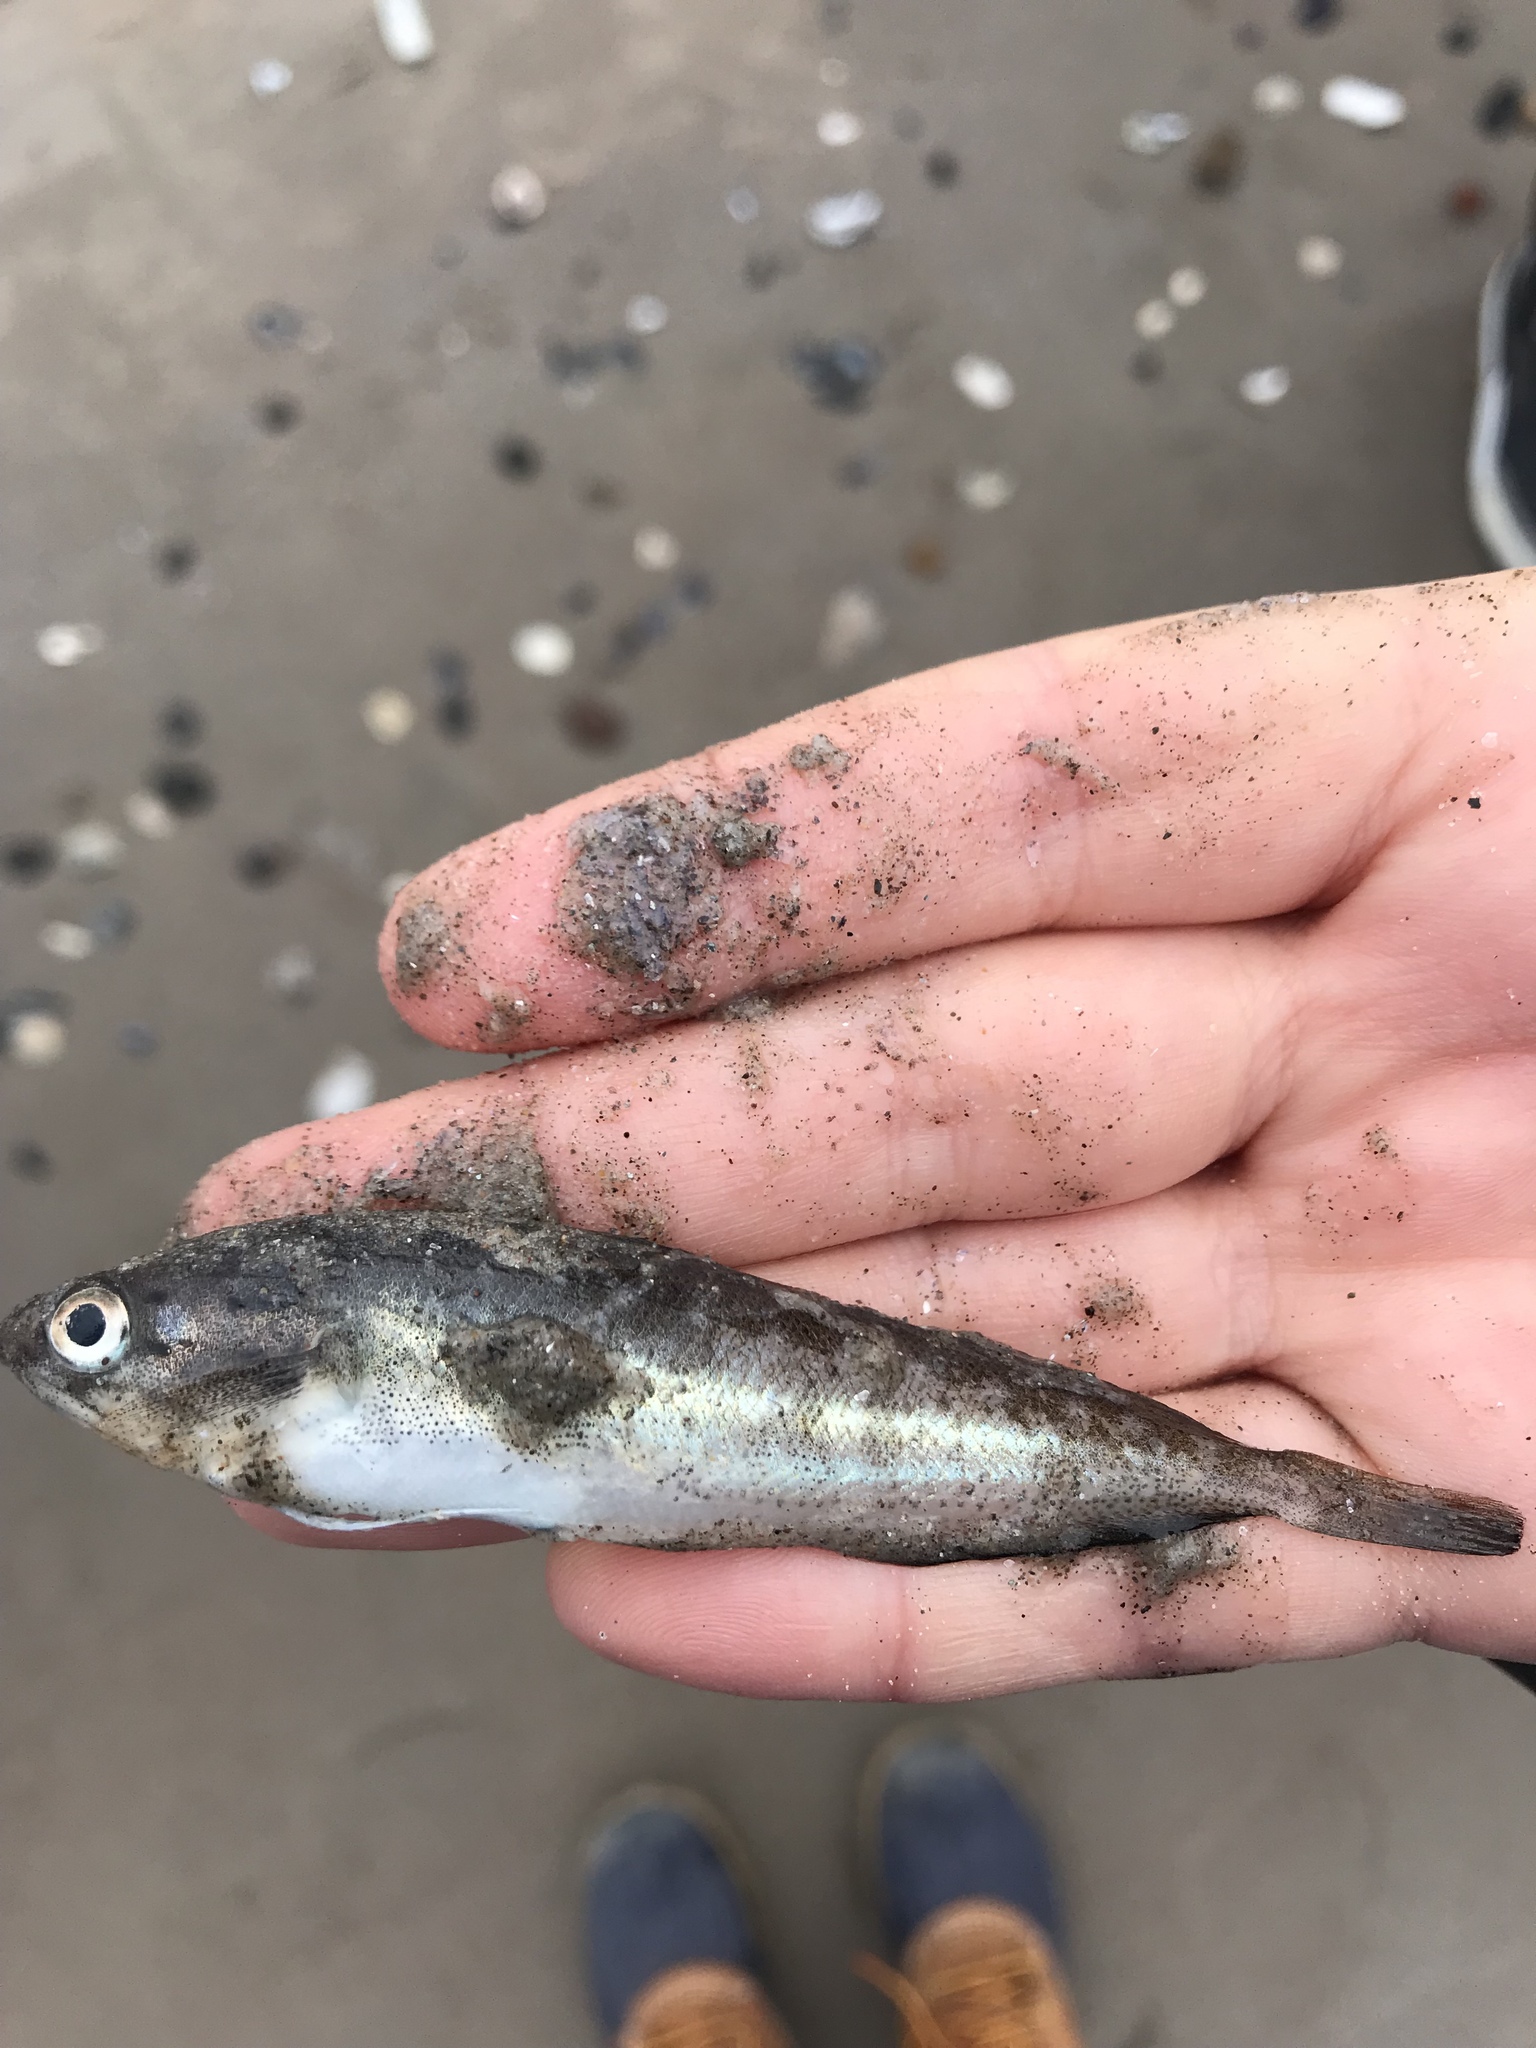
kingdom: Animalia
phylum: Chordata
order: Gadiformes
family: Phycidae
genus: Urophycis
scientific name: Urophycis regia
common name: Spotted codling
